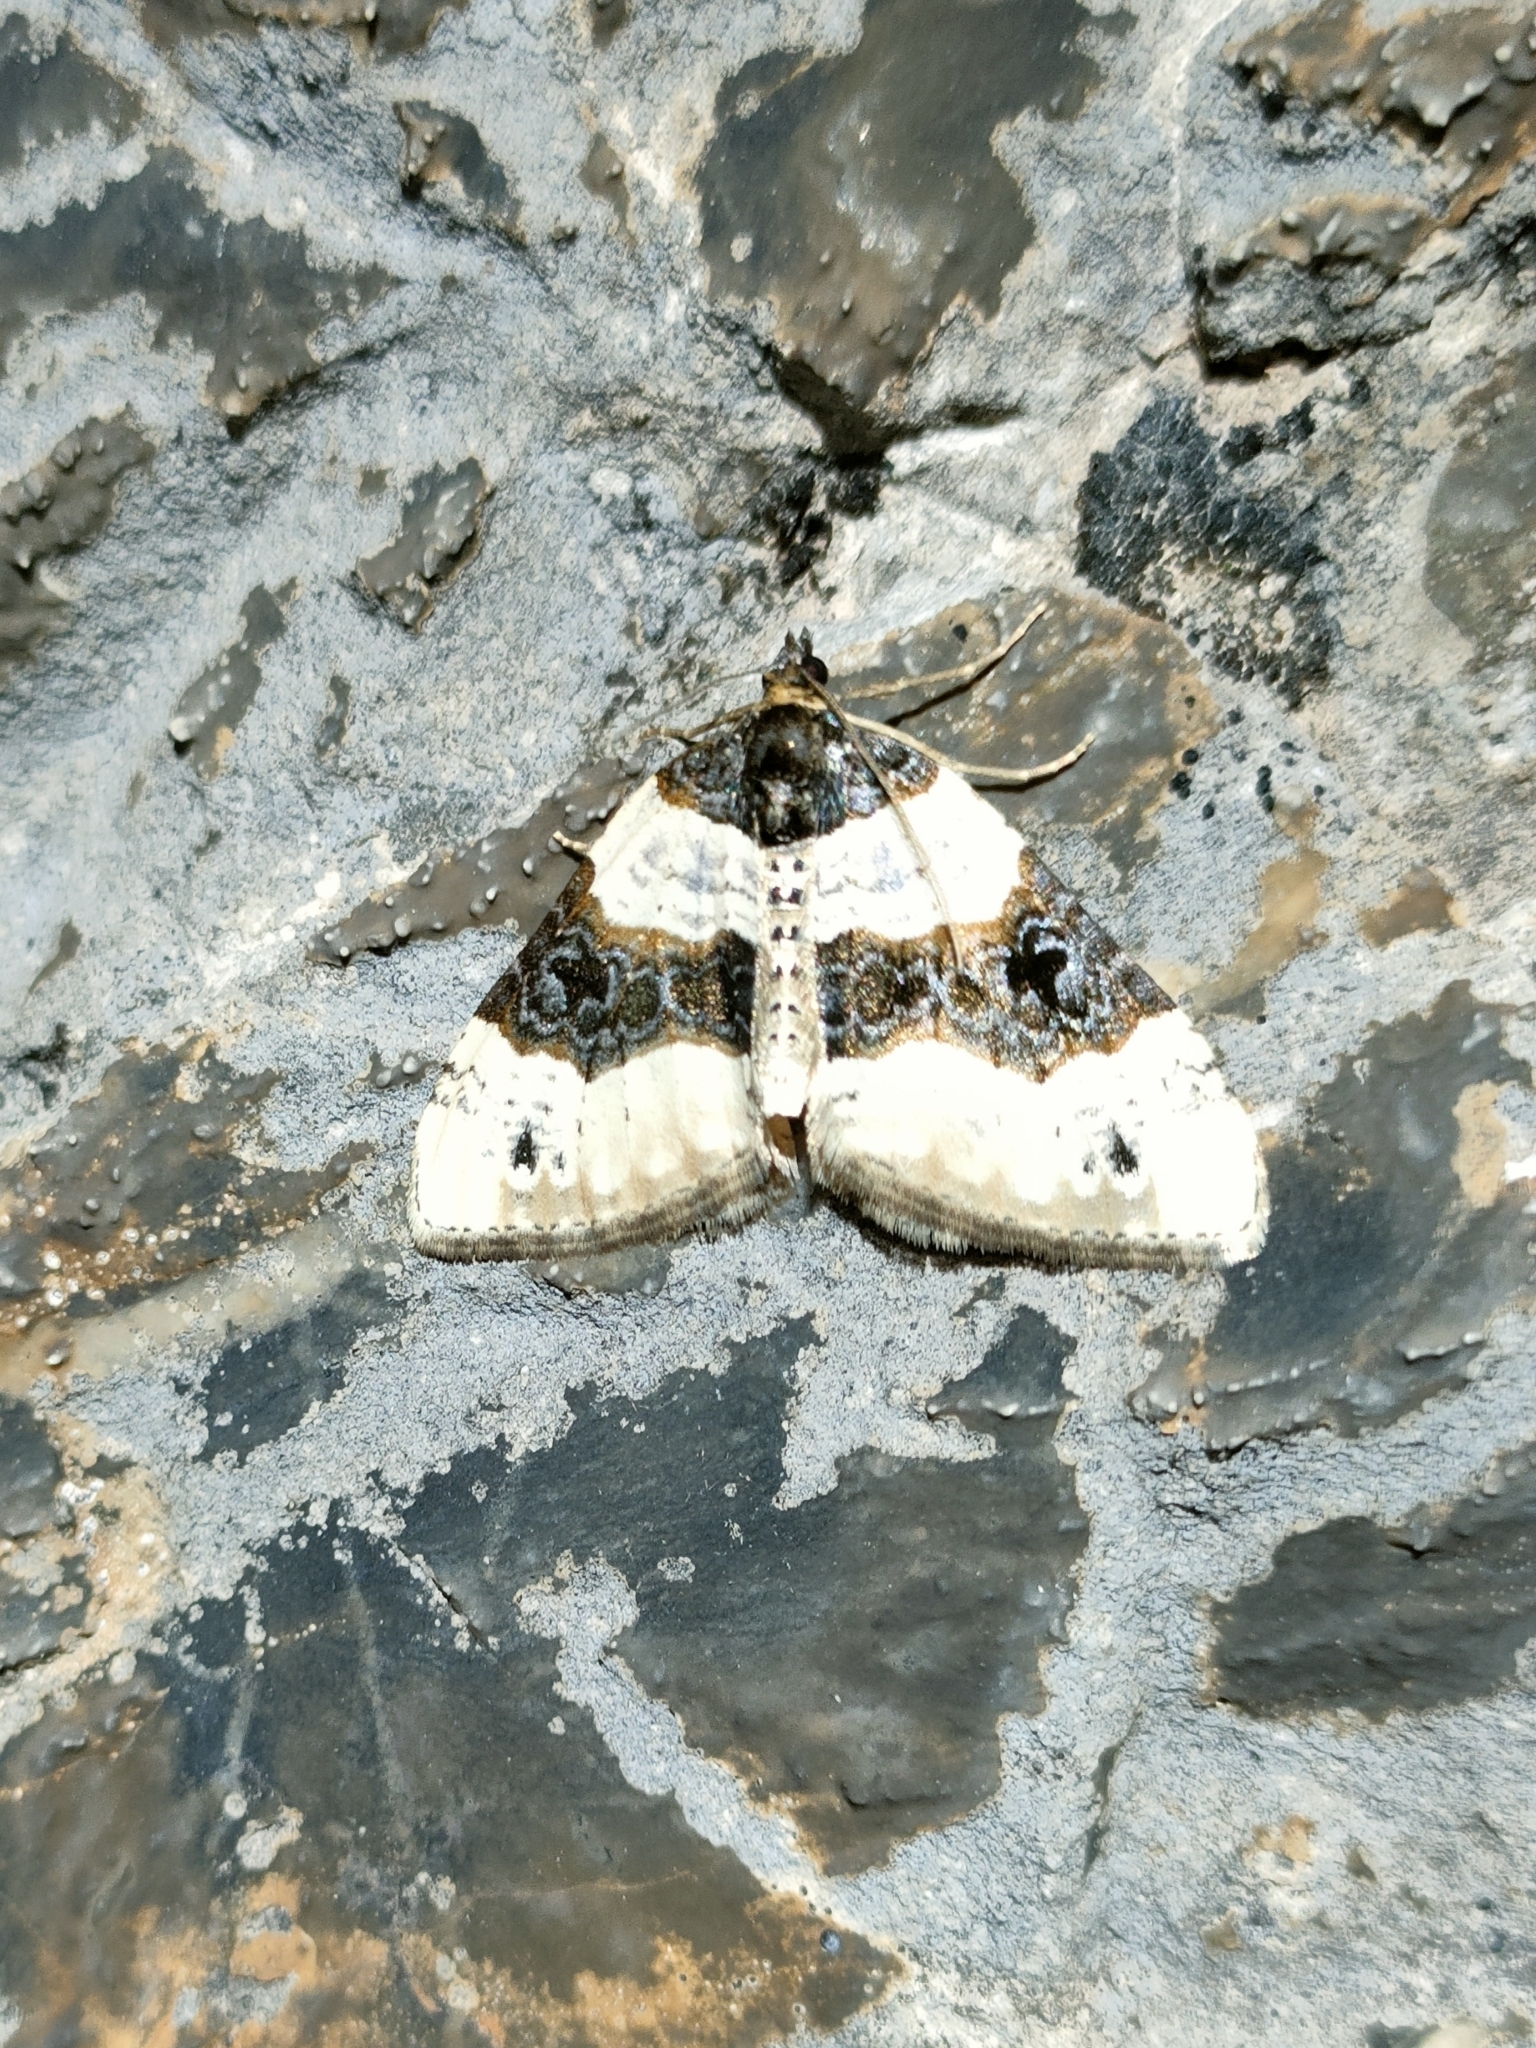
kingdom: Animalia
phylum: Arthropoda
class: Insecta
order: Lepidoptera
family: Geometridae
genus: Cosmorhoe
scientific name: Cosmorhoe ocellata
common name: Purple bar
